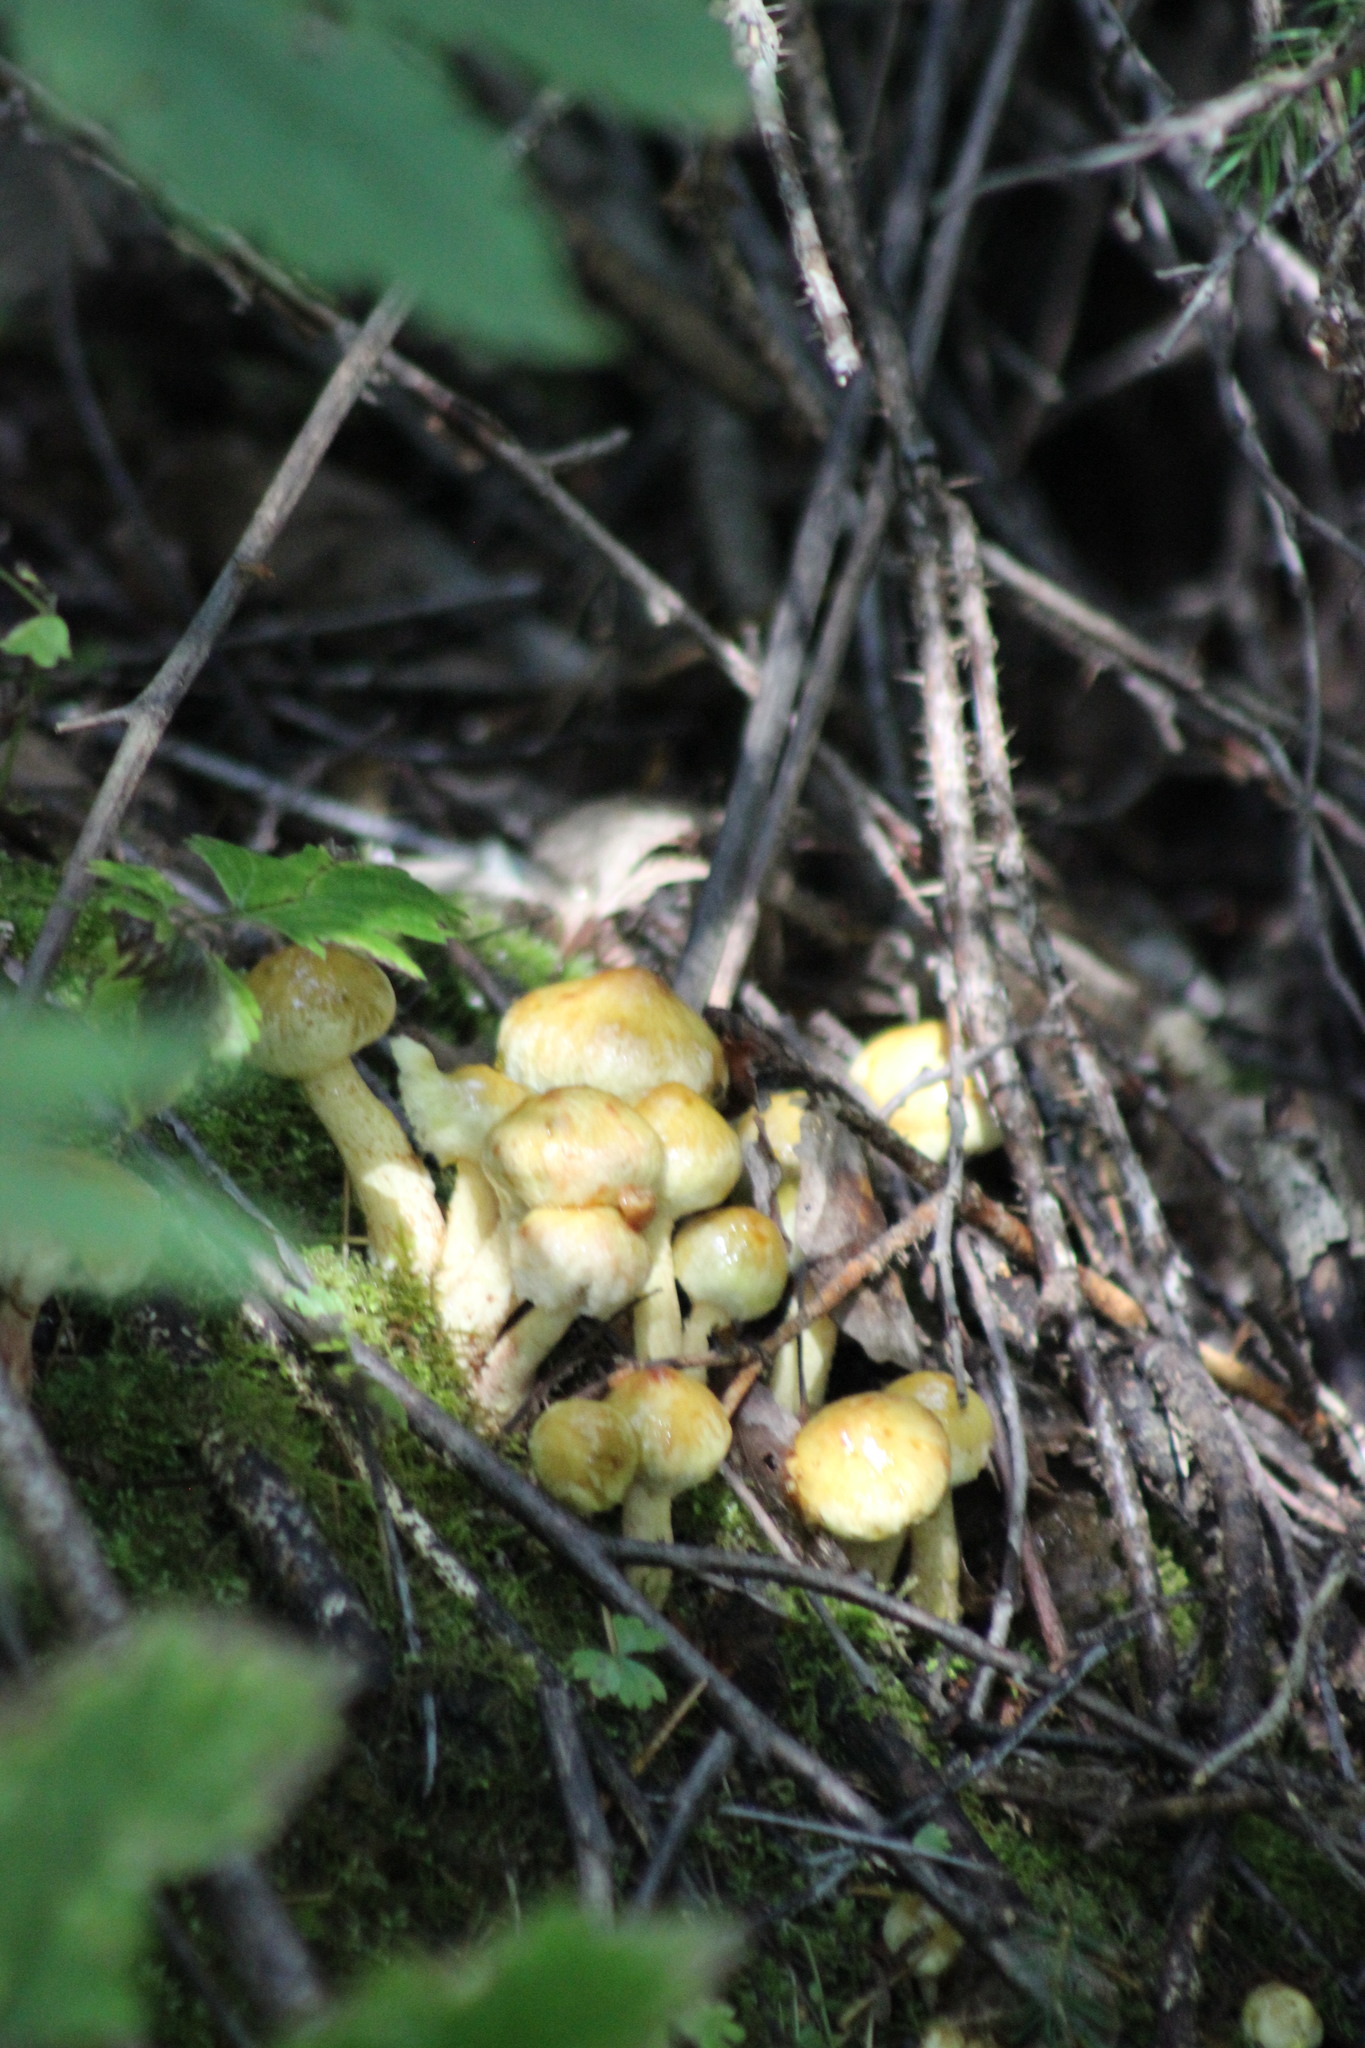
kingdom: Fungi
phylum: Basidiomycota
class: Agaricomycetes
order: Boletales
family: Suillaceae
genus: Suillus
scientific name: Suillus americanus
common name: Chicken fat mushroom
